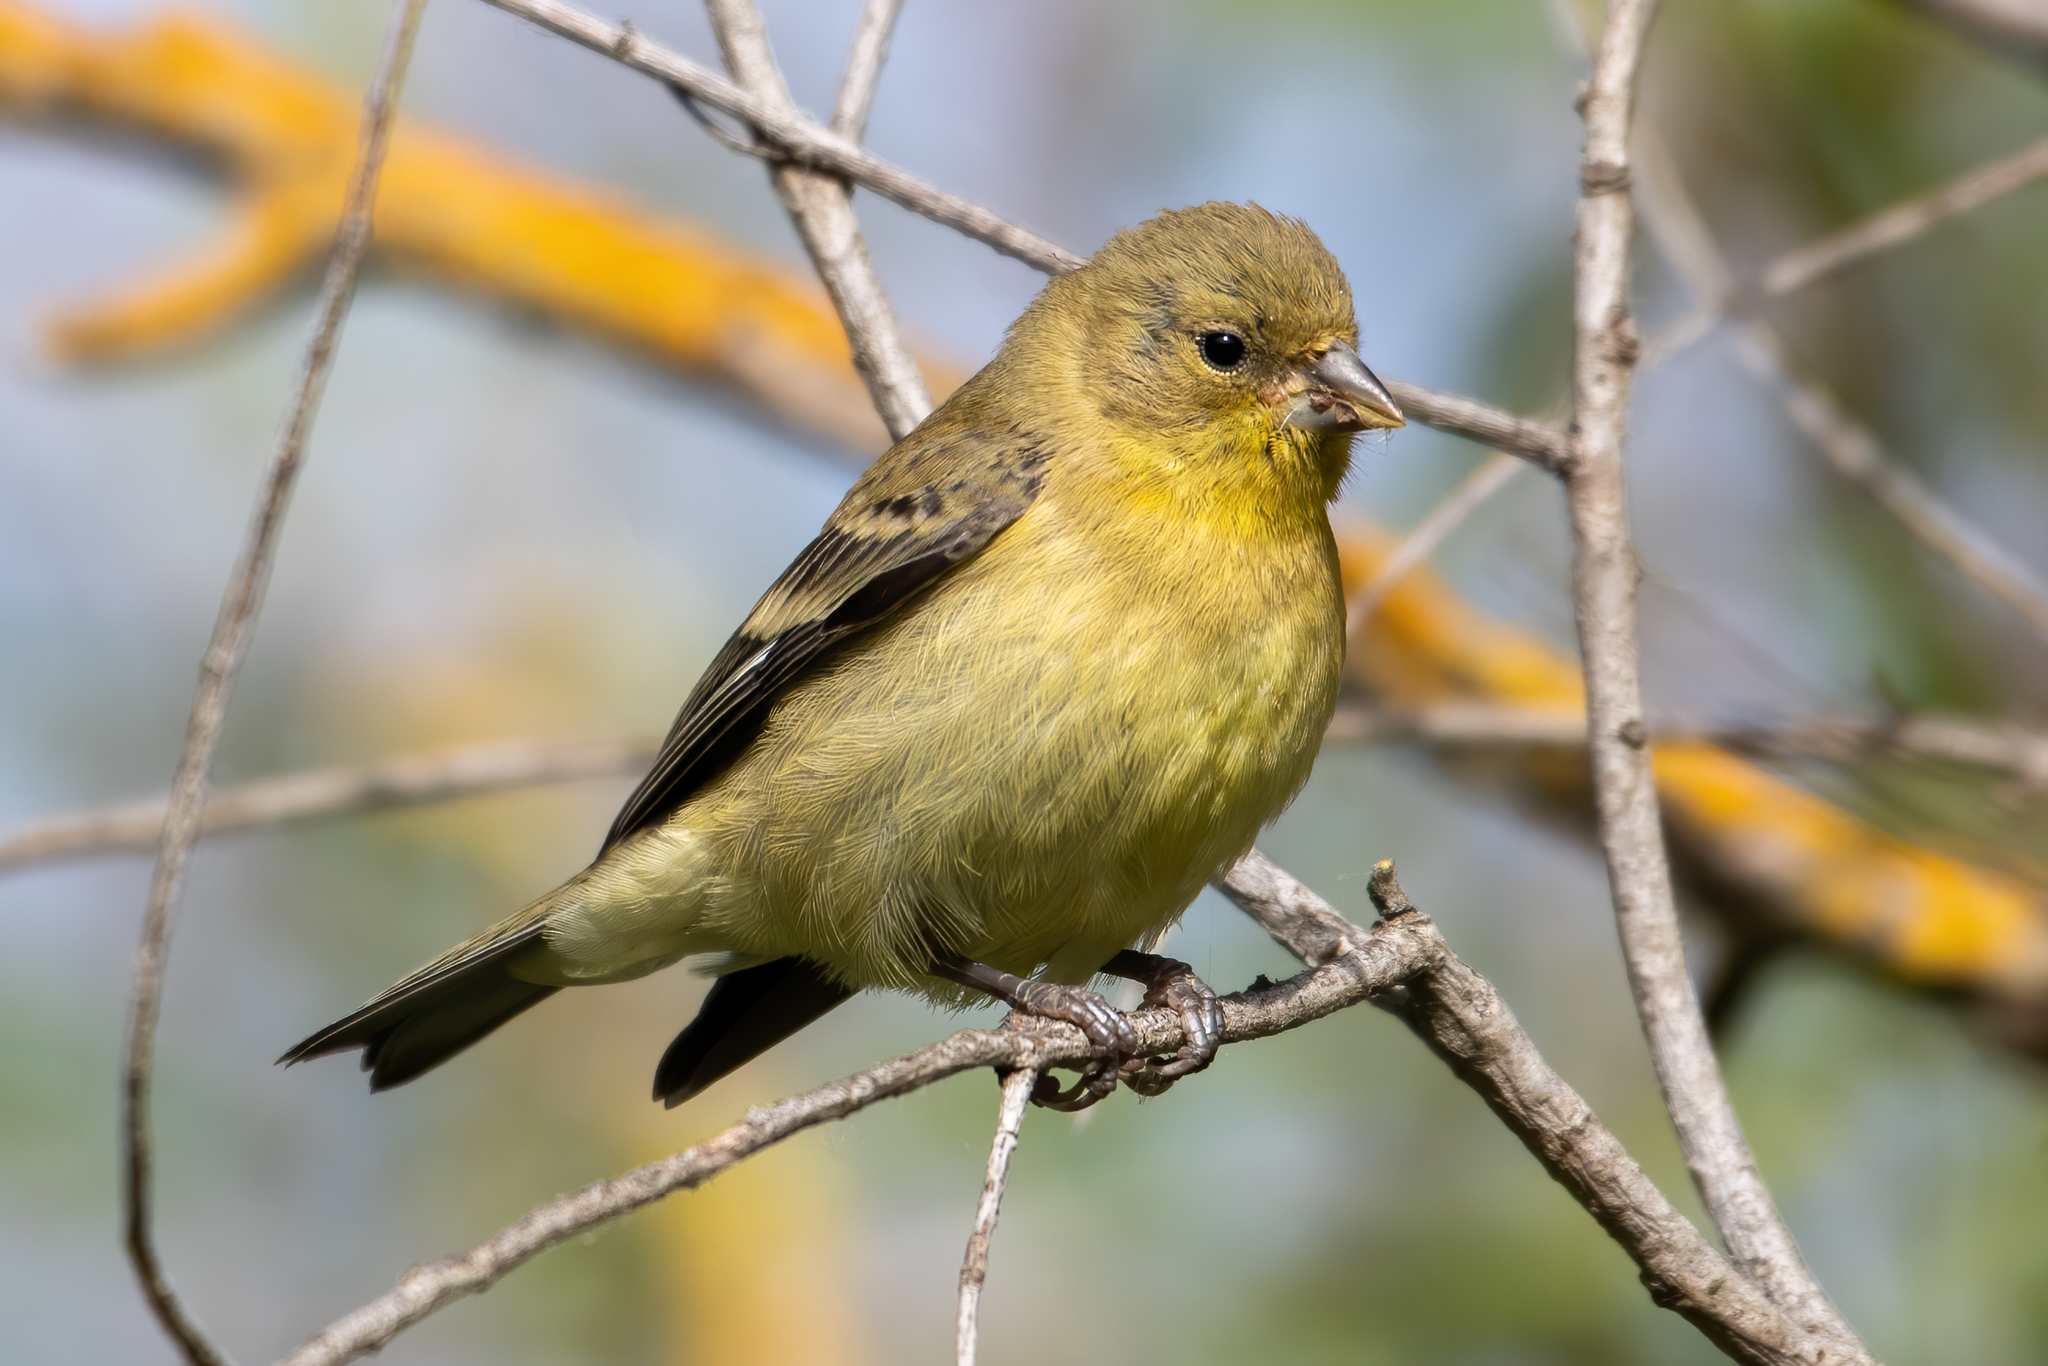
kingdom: Animalia
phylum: Chordata
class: Aves
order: Passeriformes
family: Fringillidae
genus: Spinus
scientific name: Spinus psaltria
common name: Lesser goldfinch
